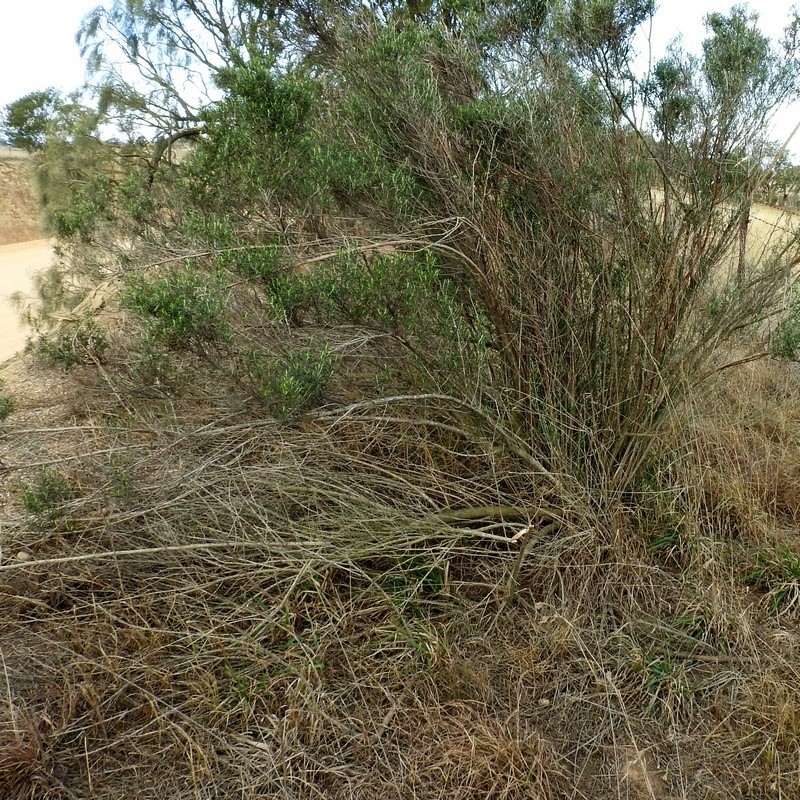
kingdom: Plantae
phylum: Tracheophyta
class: Magnoliopsida
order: Asterales
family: Asteraceae
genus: Ozothamnus
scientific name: Ozothamnus conditus
